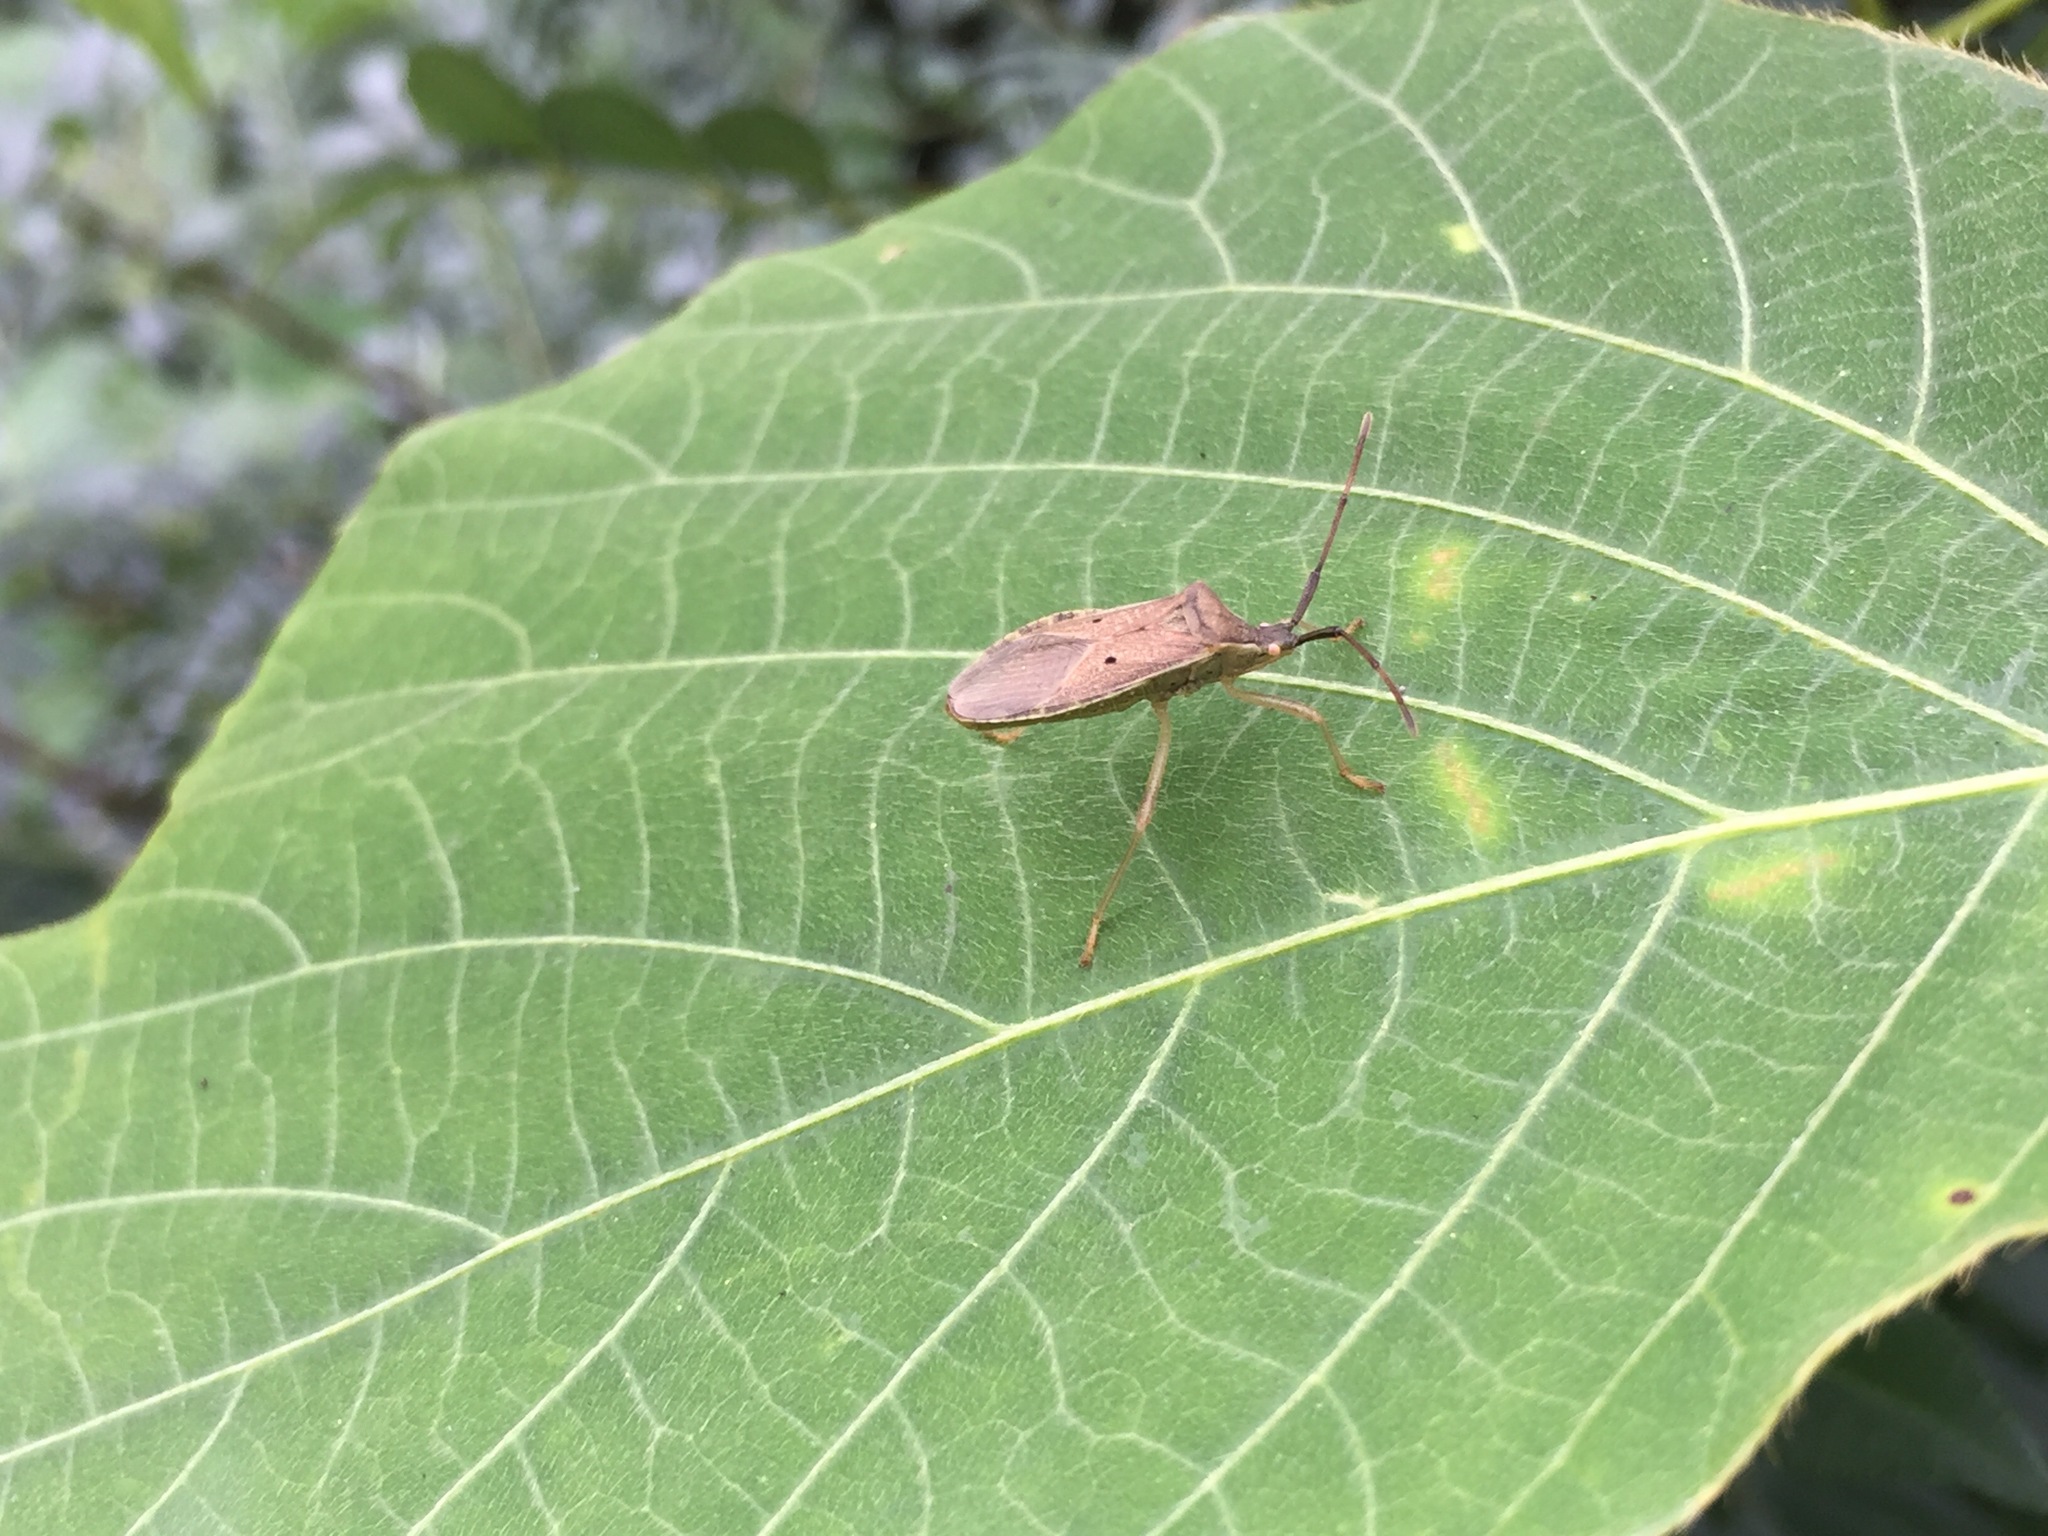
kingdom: Animalia
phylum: Arthropoda
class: Insecta
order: Hemiptera
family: Coreidae
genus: Homoeocerus
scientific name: Homoeocerus unipunctatus
